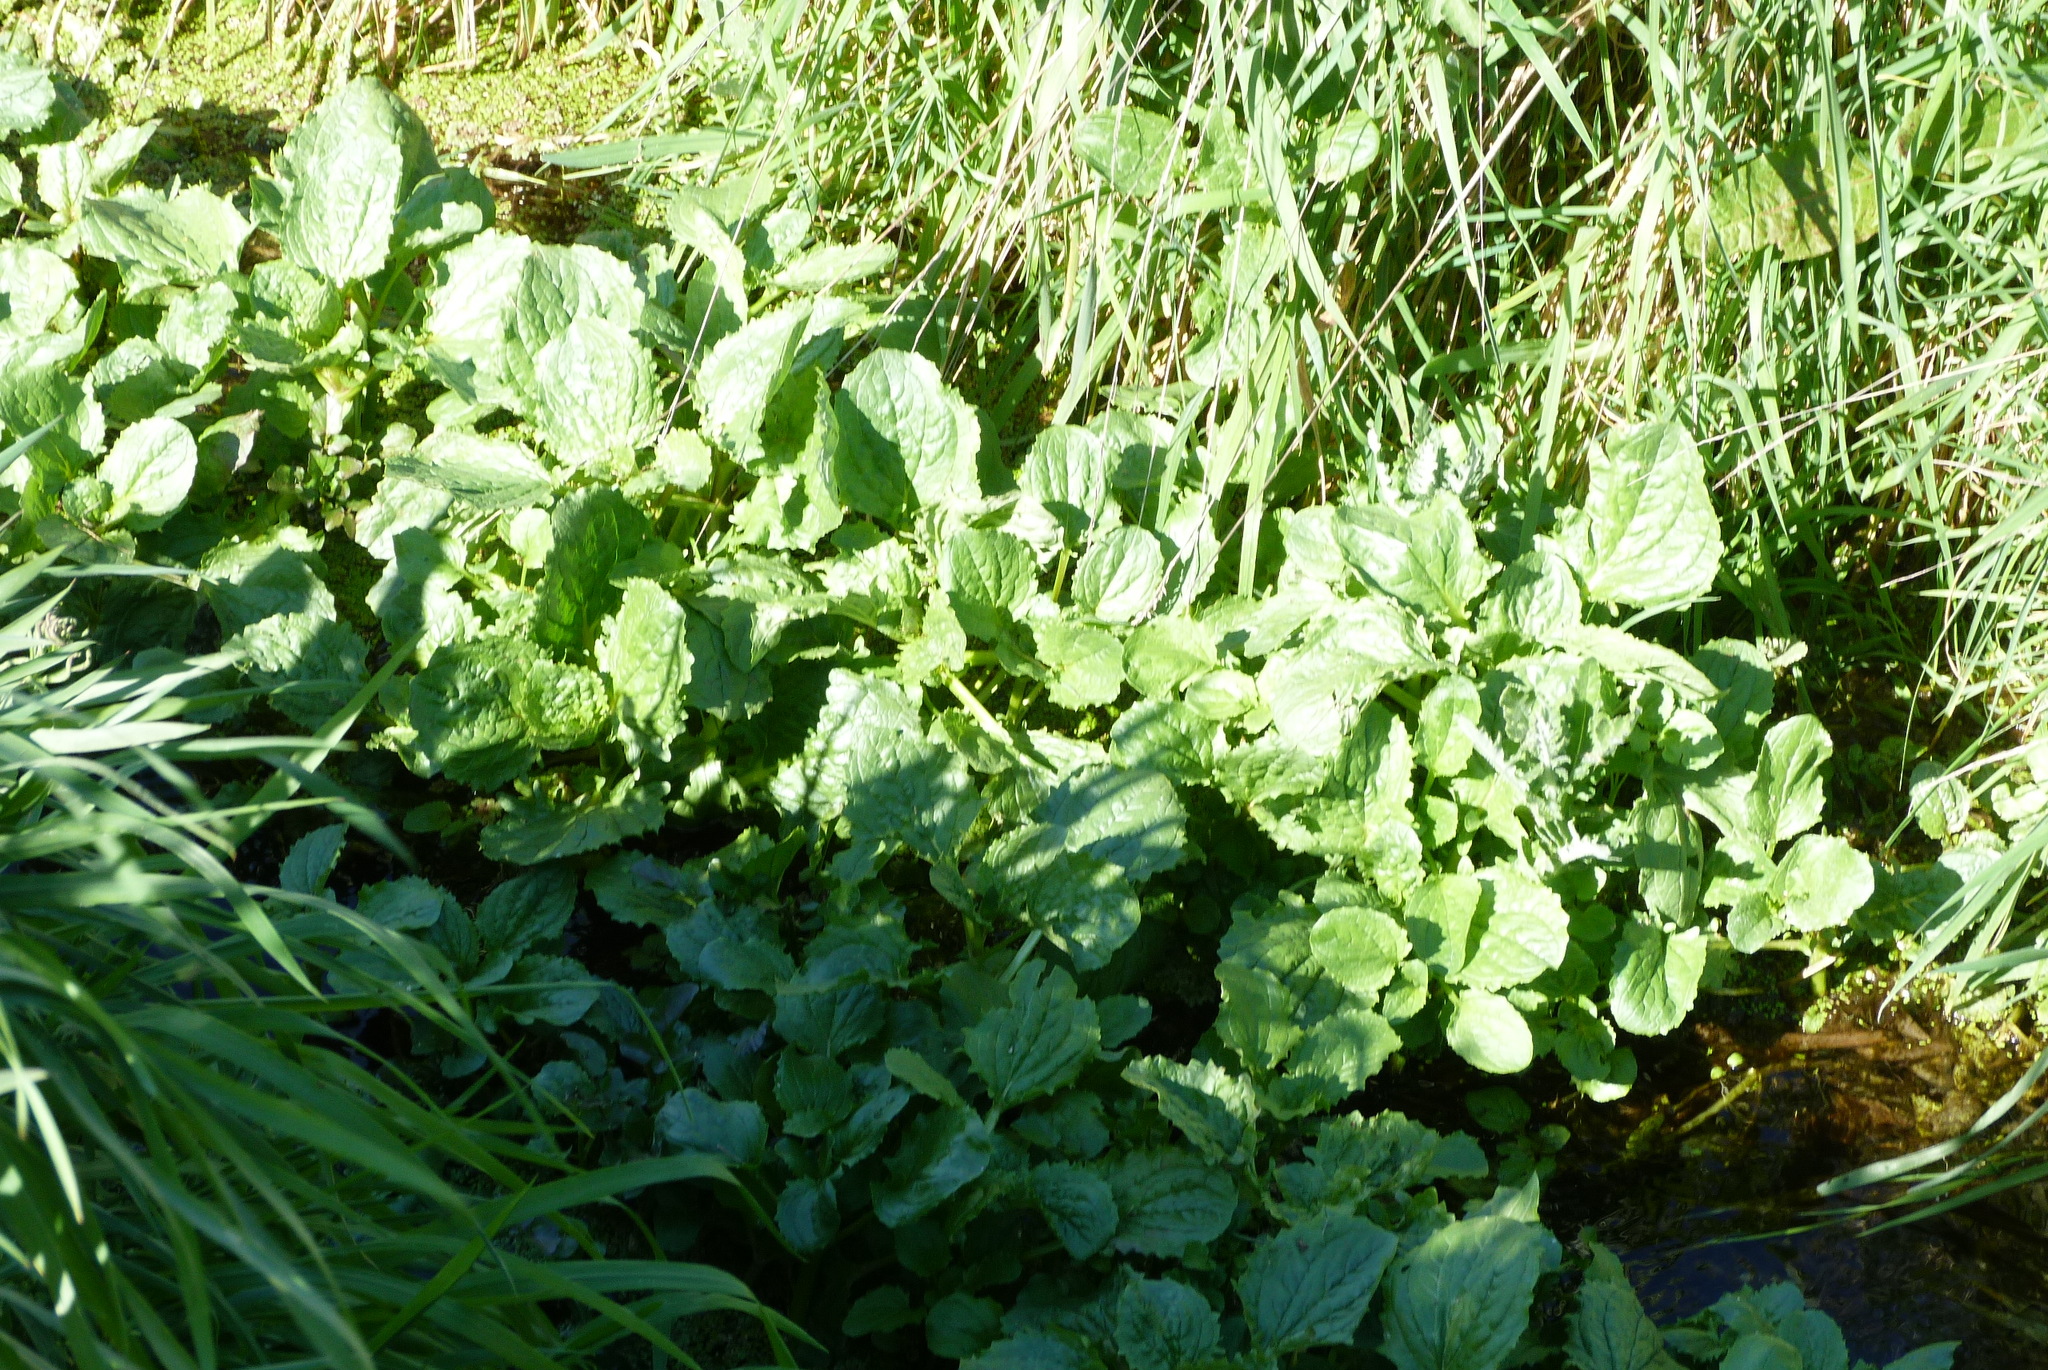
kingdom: Plantae
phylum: Tracheophyta
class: Magnoliopsida
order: Lamiales
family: Phrymaceae
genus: Erythranthe
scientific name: Erythranthe guttata
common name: Monkeyflower
